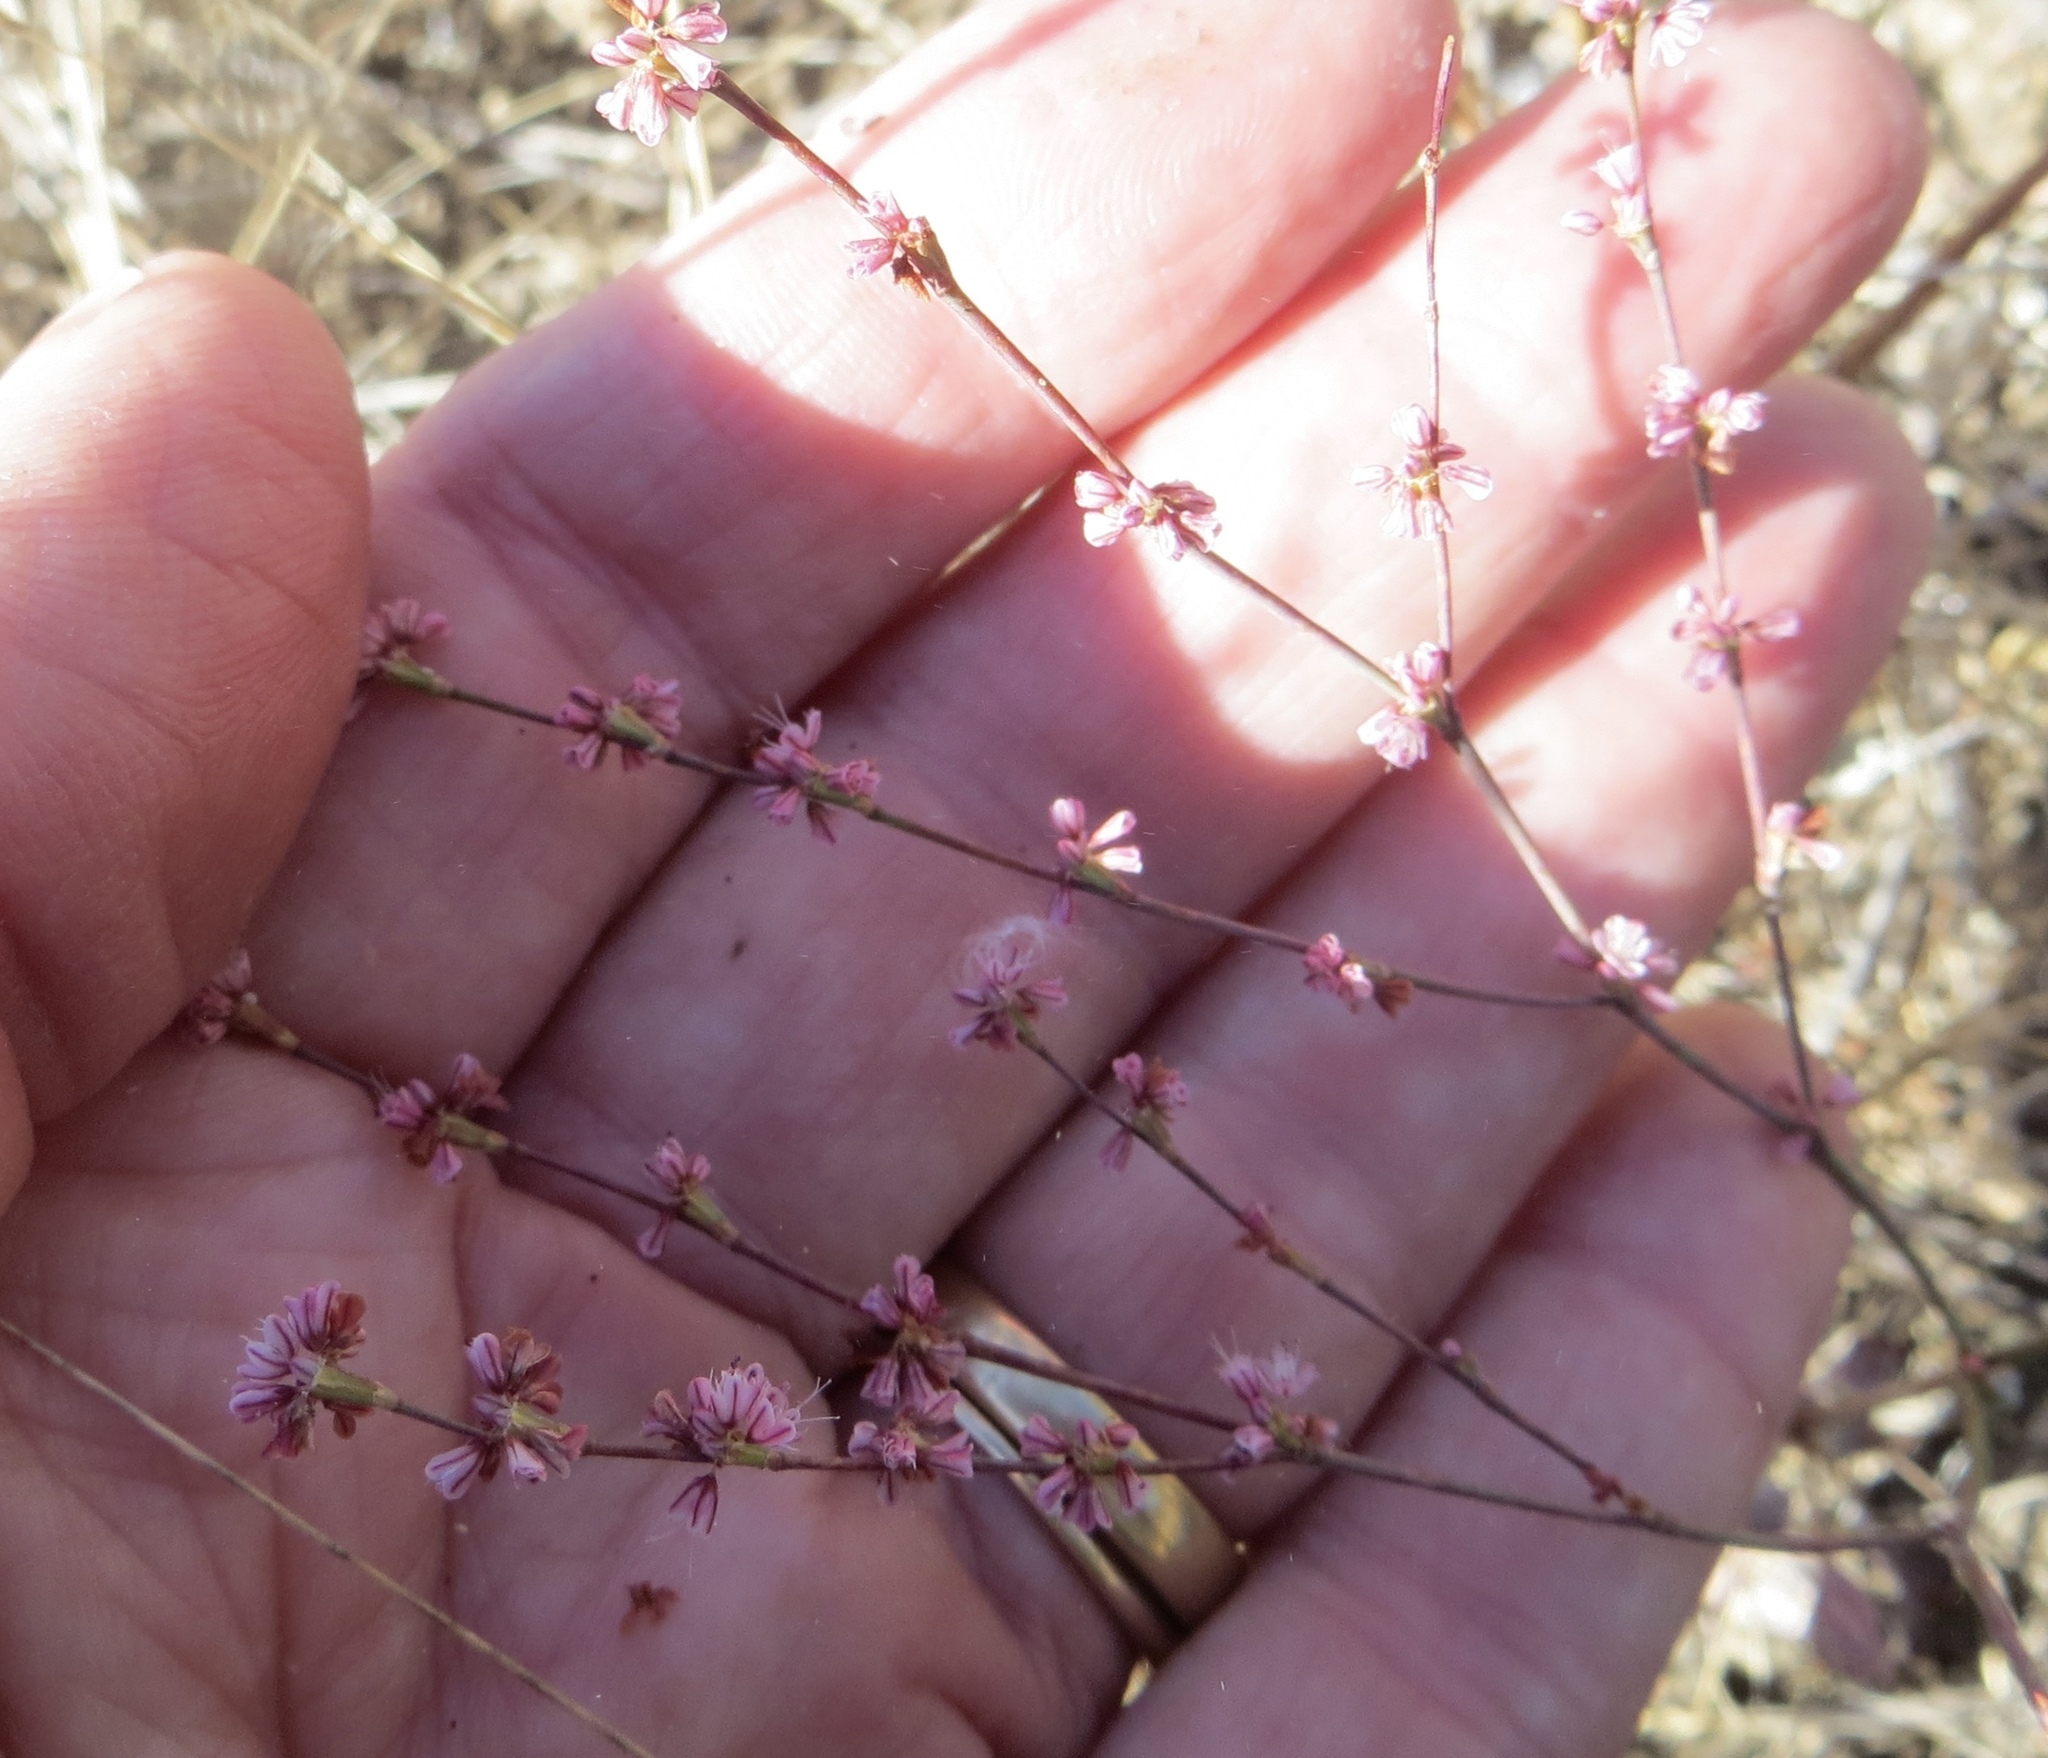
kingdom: Plantae
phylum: Tracheophyta
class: Magnoliopsida
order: Caryophyllales
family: Polygonaceae
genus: Eriogonum
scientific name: Eriogonum vimineum
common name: Wicker buckwheat
